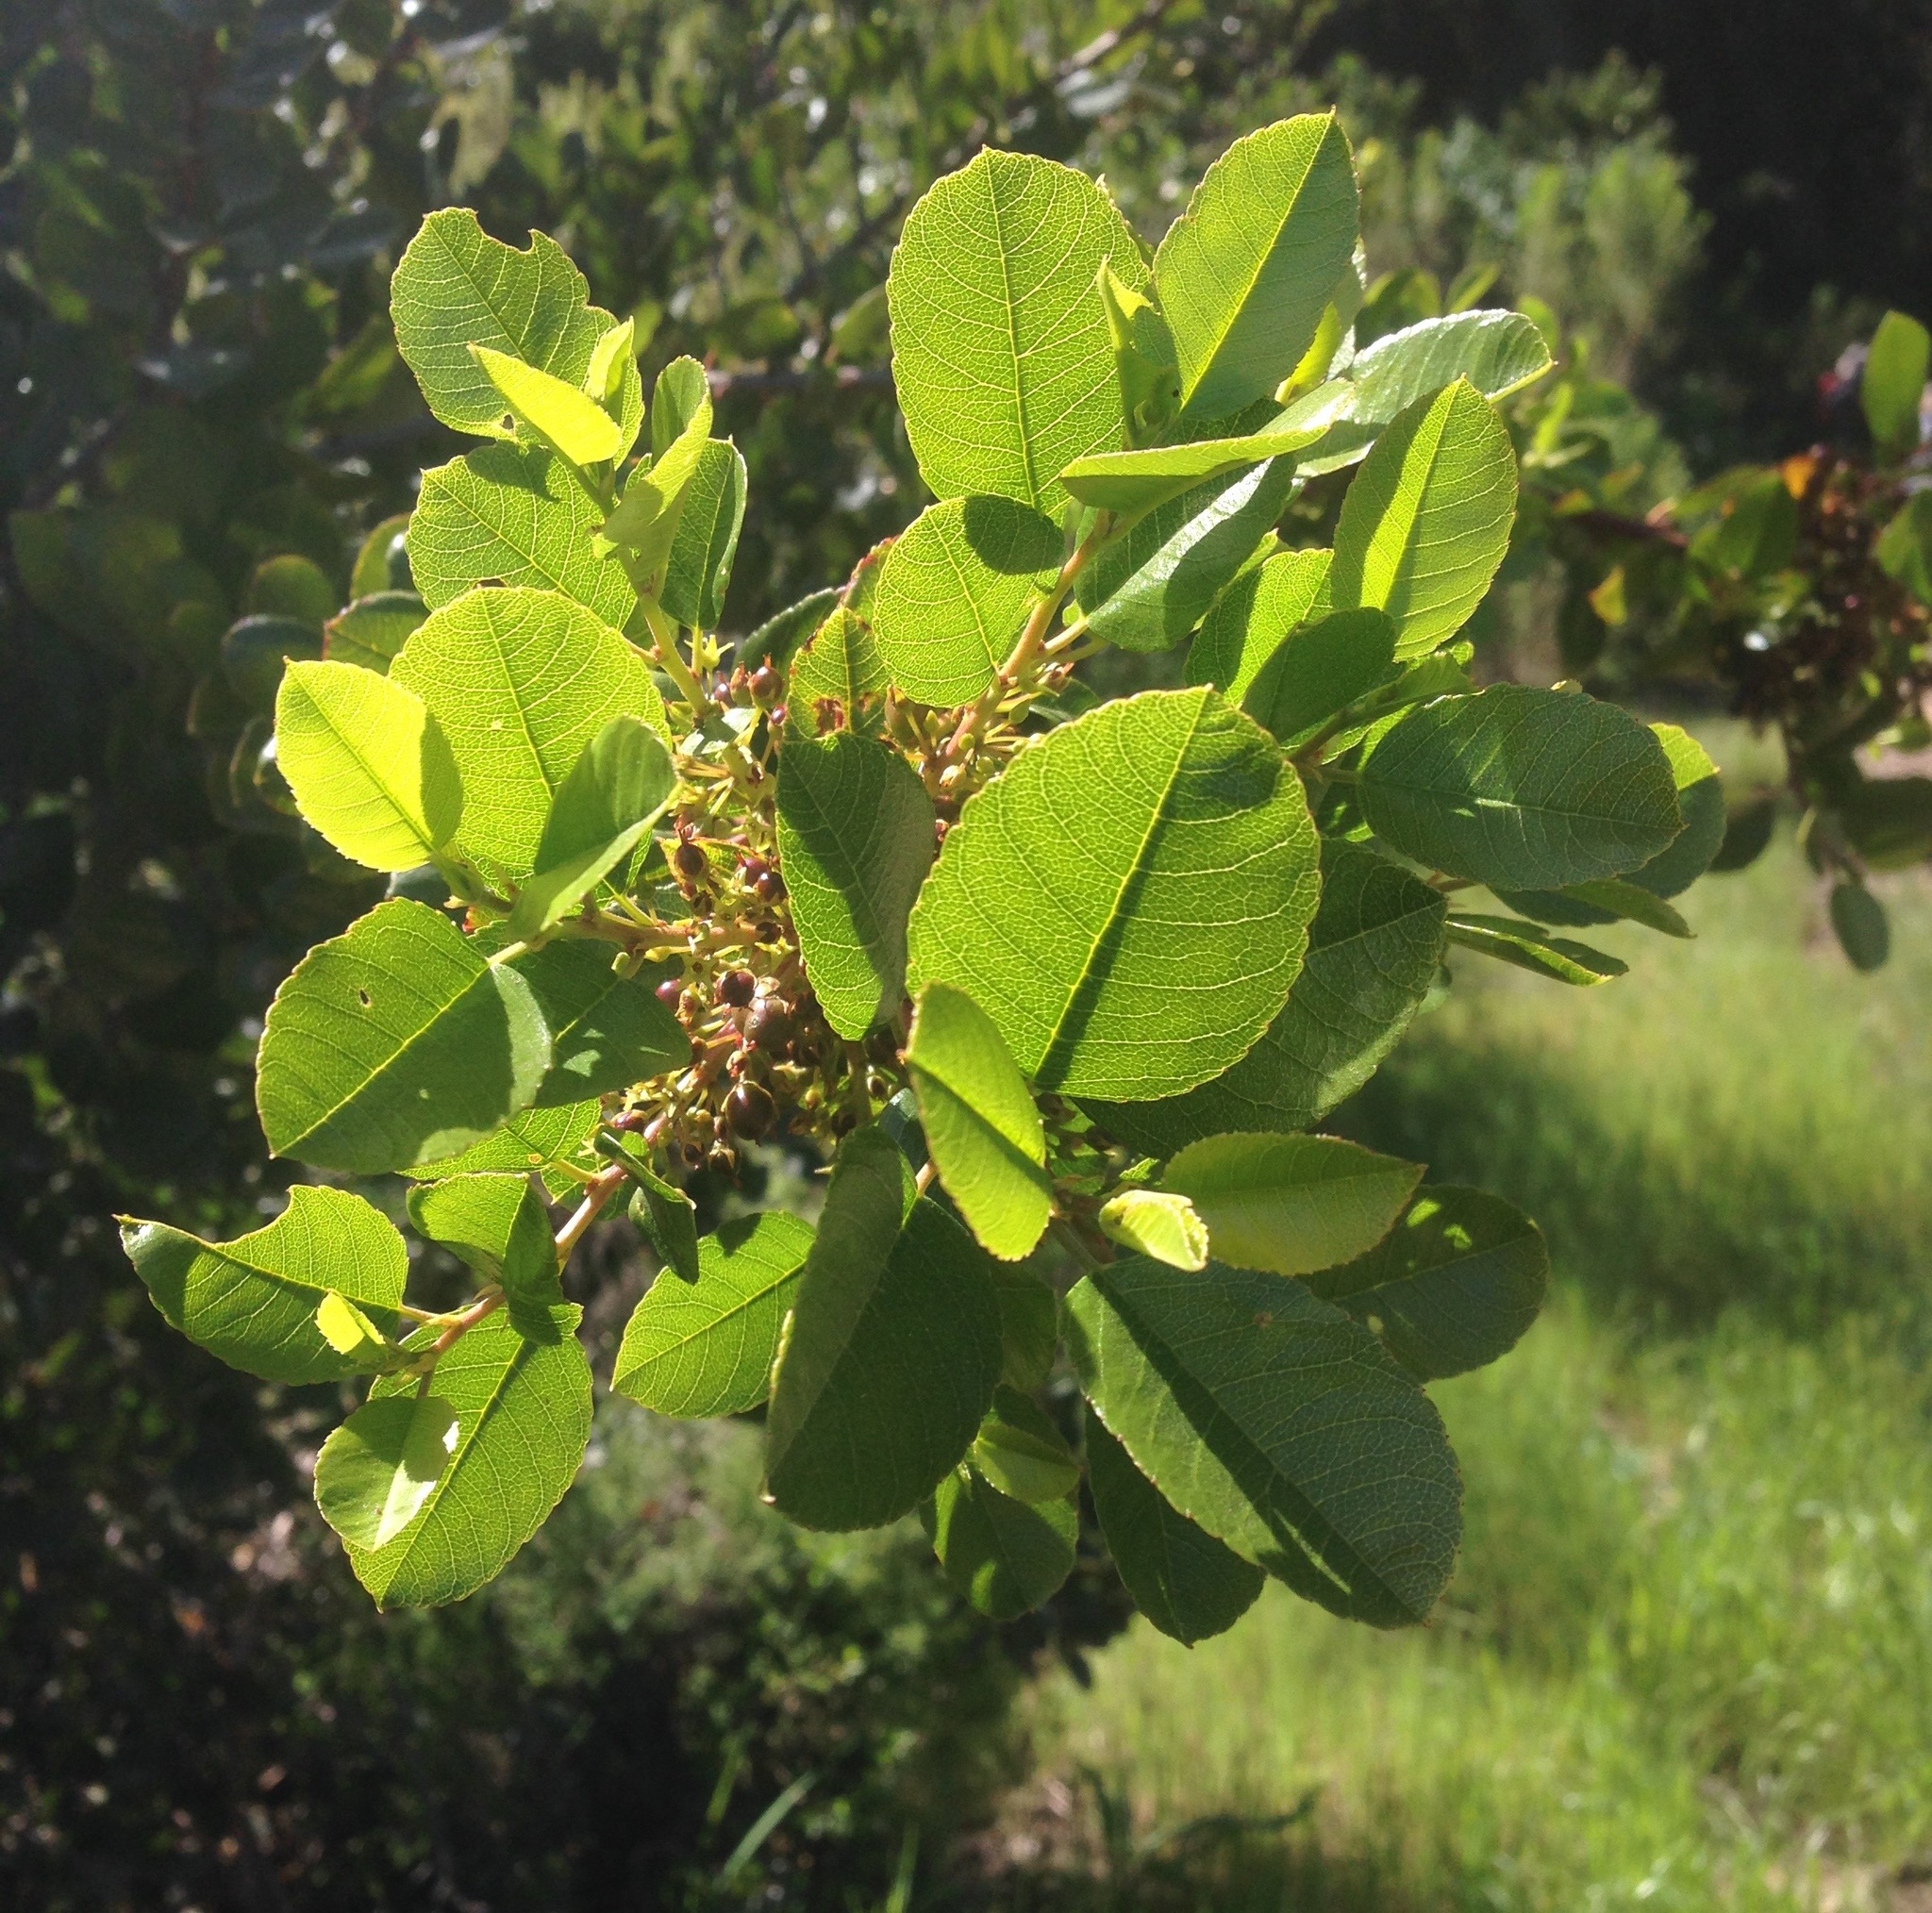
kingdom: Plantae
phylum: Tracheophyta
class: Magnoliopsida
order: Rosales
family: Rhamnaceae
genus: Endotropis
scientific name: Endotropis crocea
